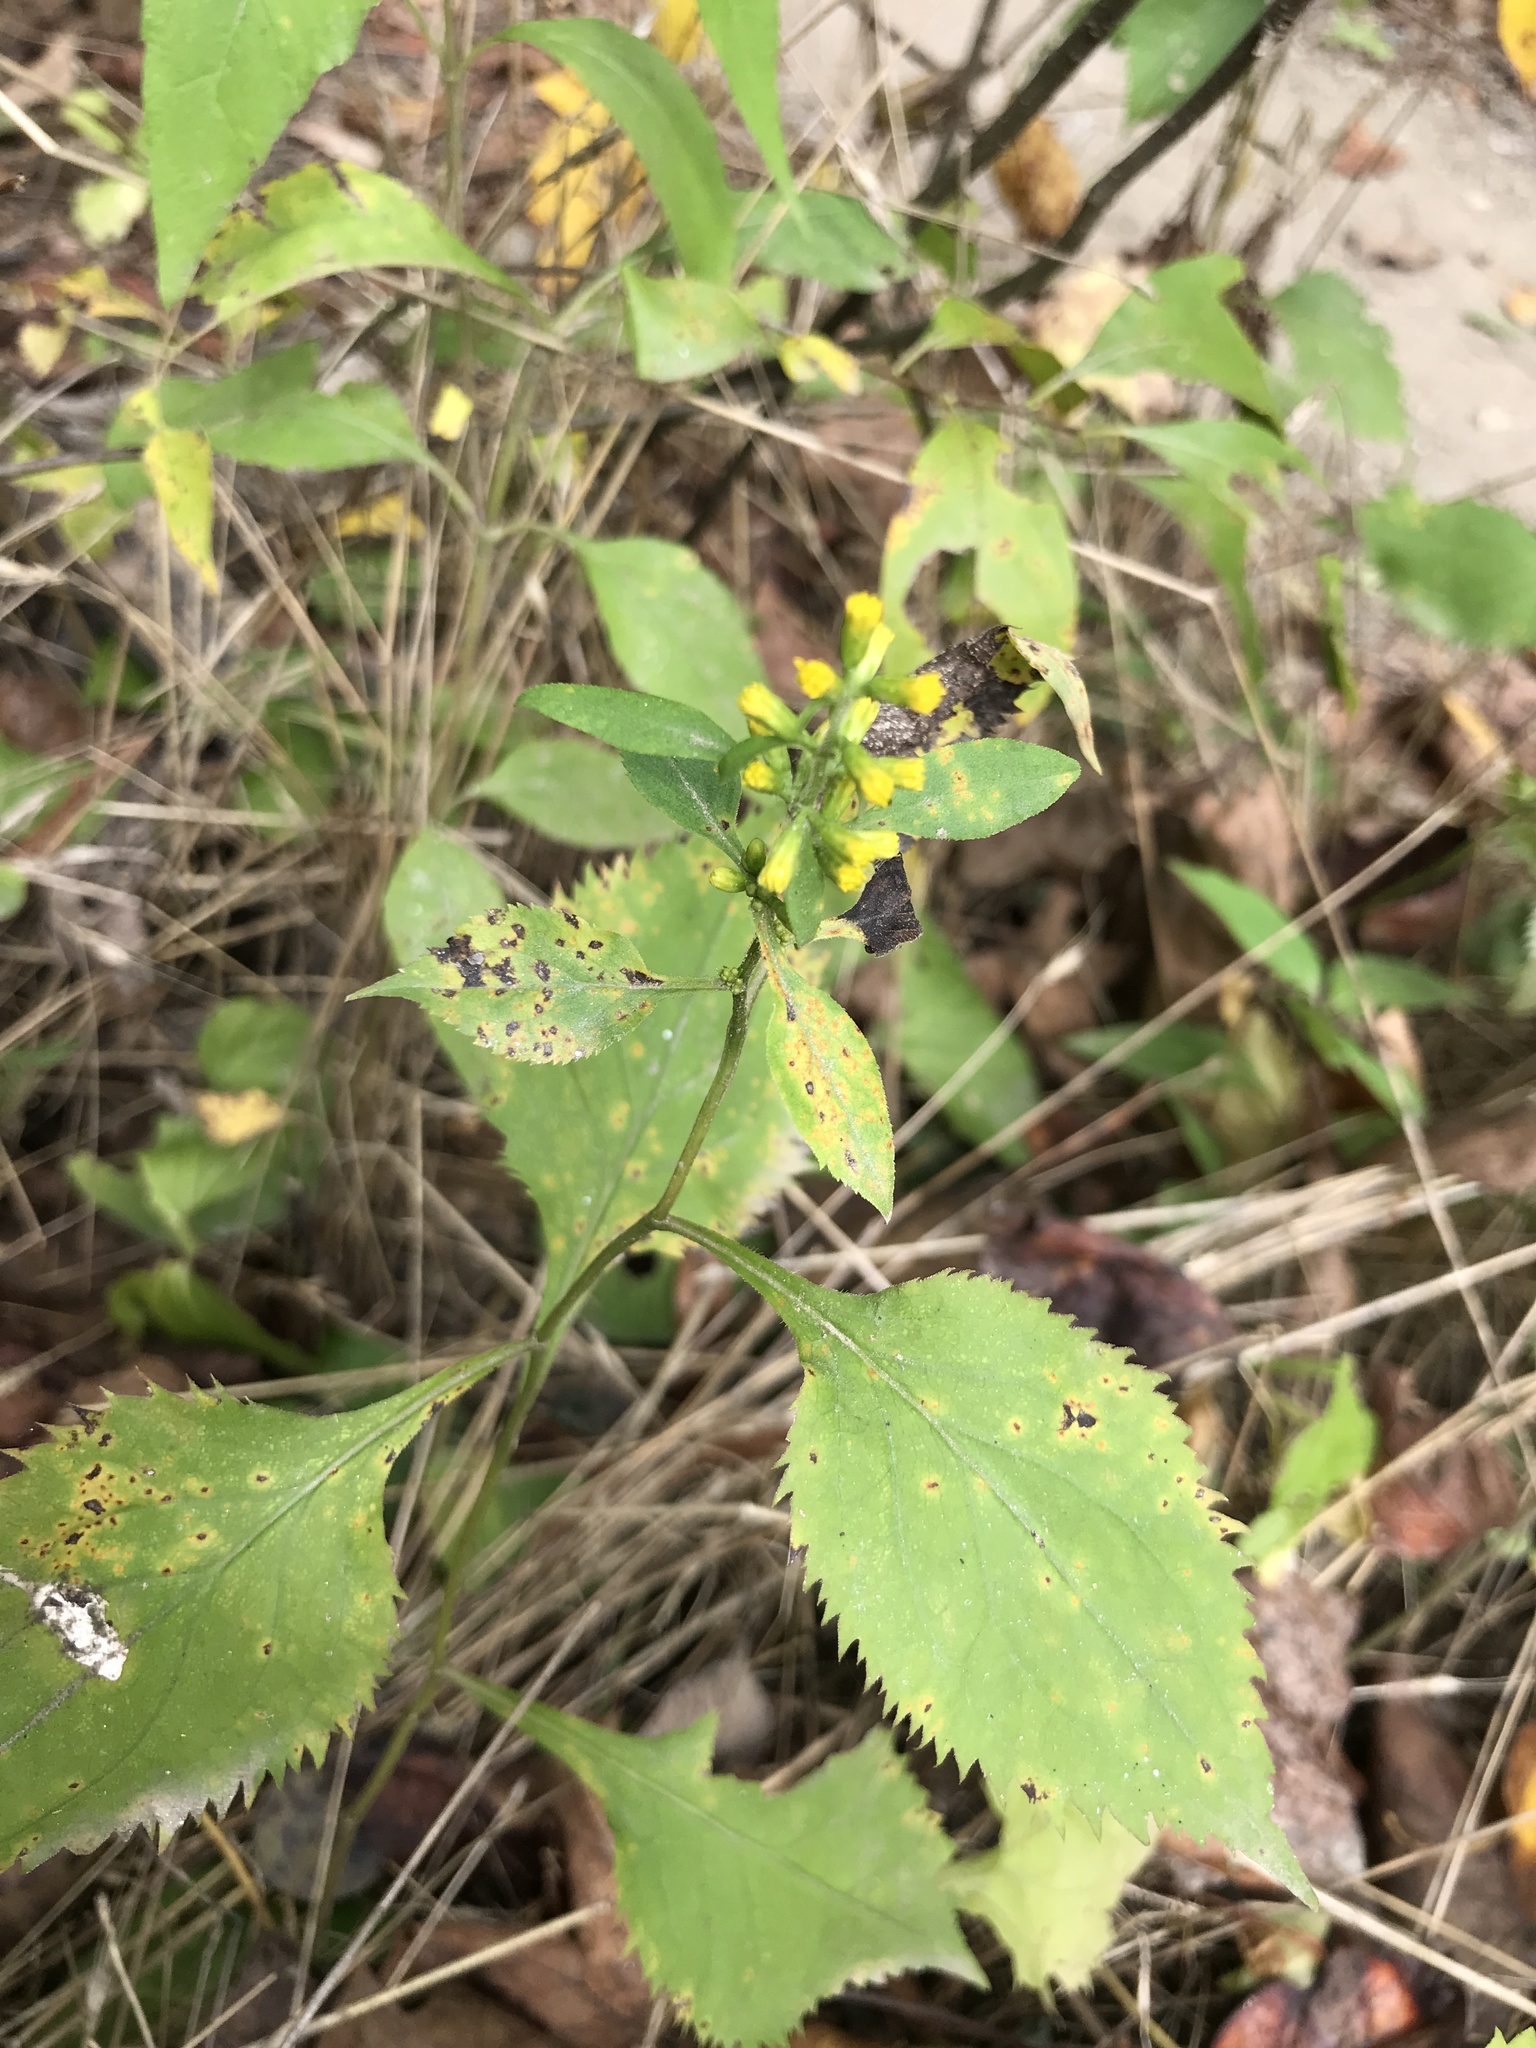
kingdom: Plantae
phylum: Tracheophyta
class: Magnoliopsida
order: Asterales
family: Asteraceae
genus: Solidago
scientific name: Solidago flexicaulis
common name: Zig-zag goldenrod
